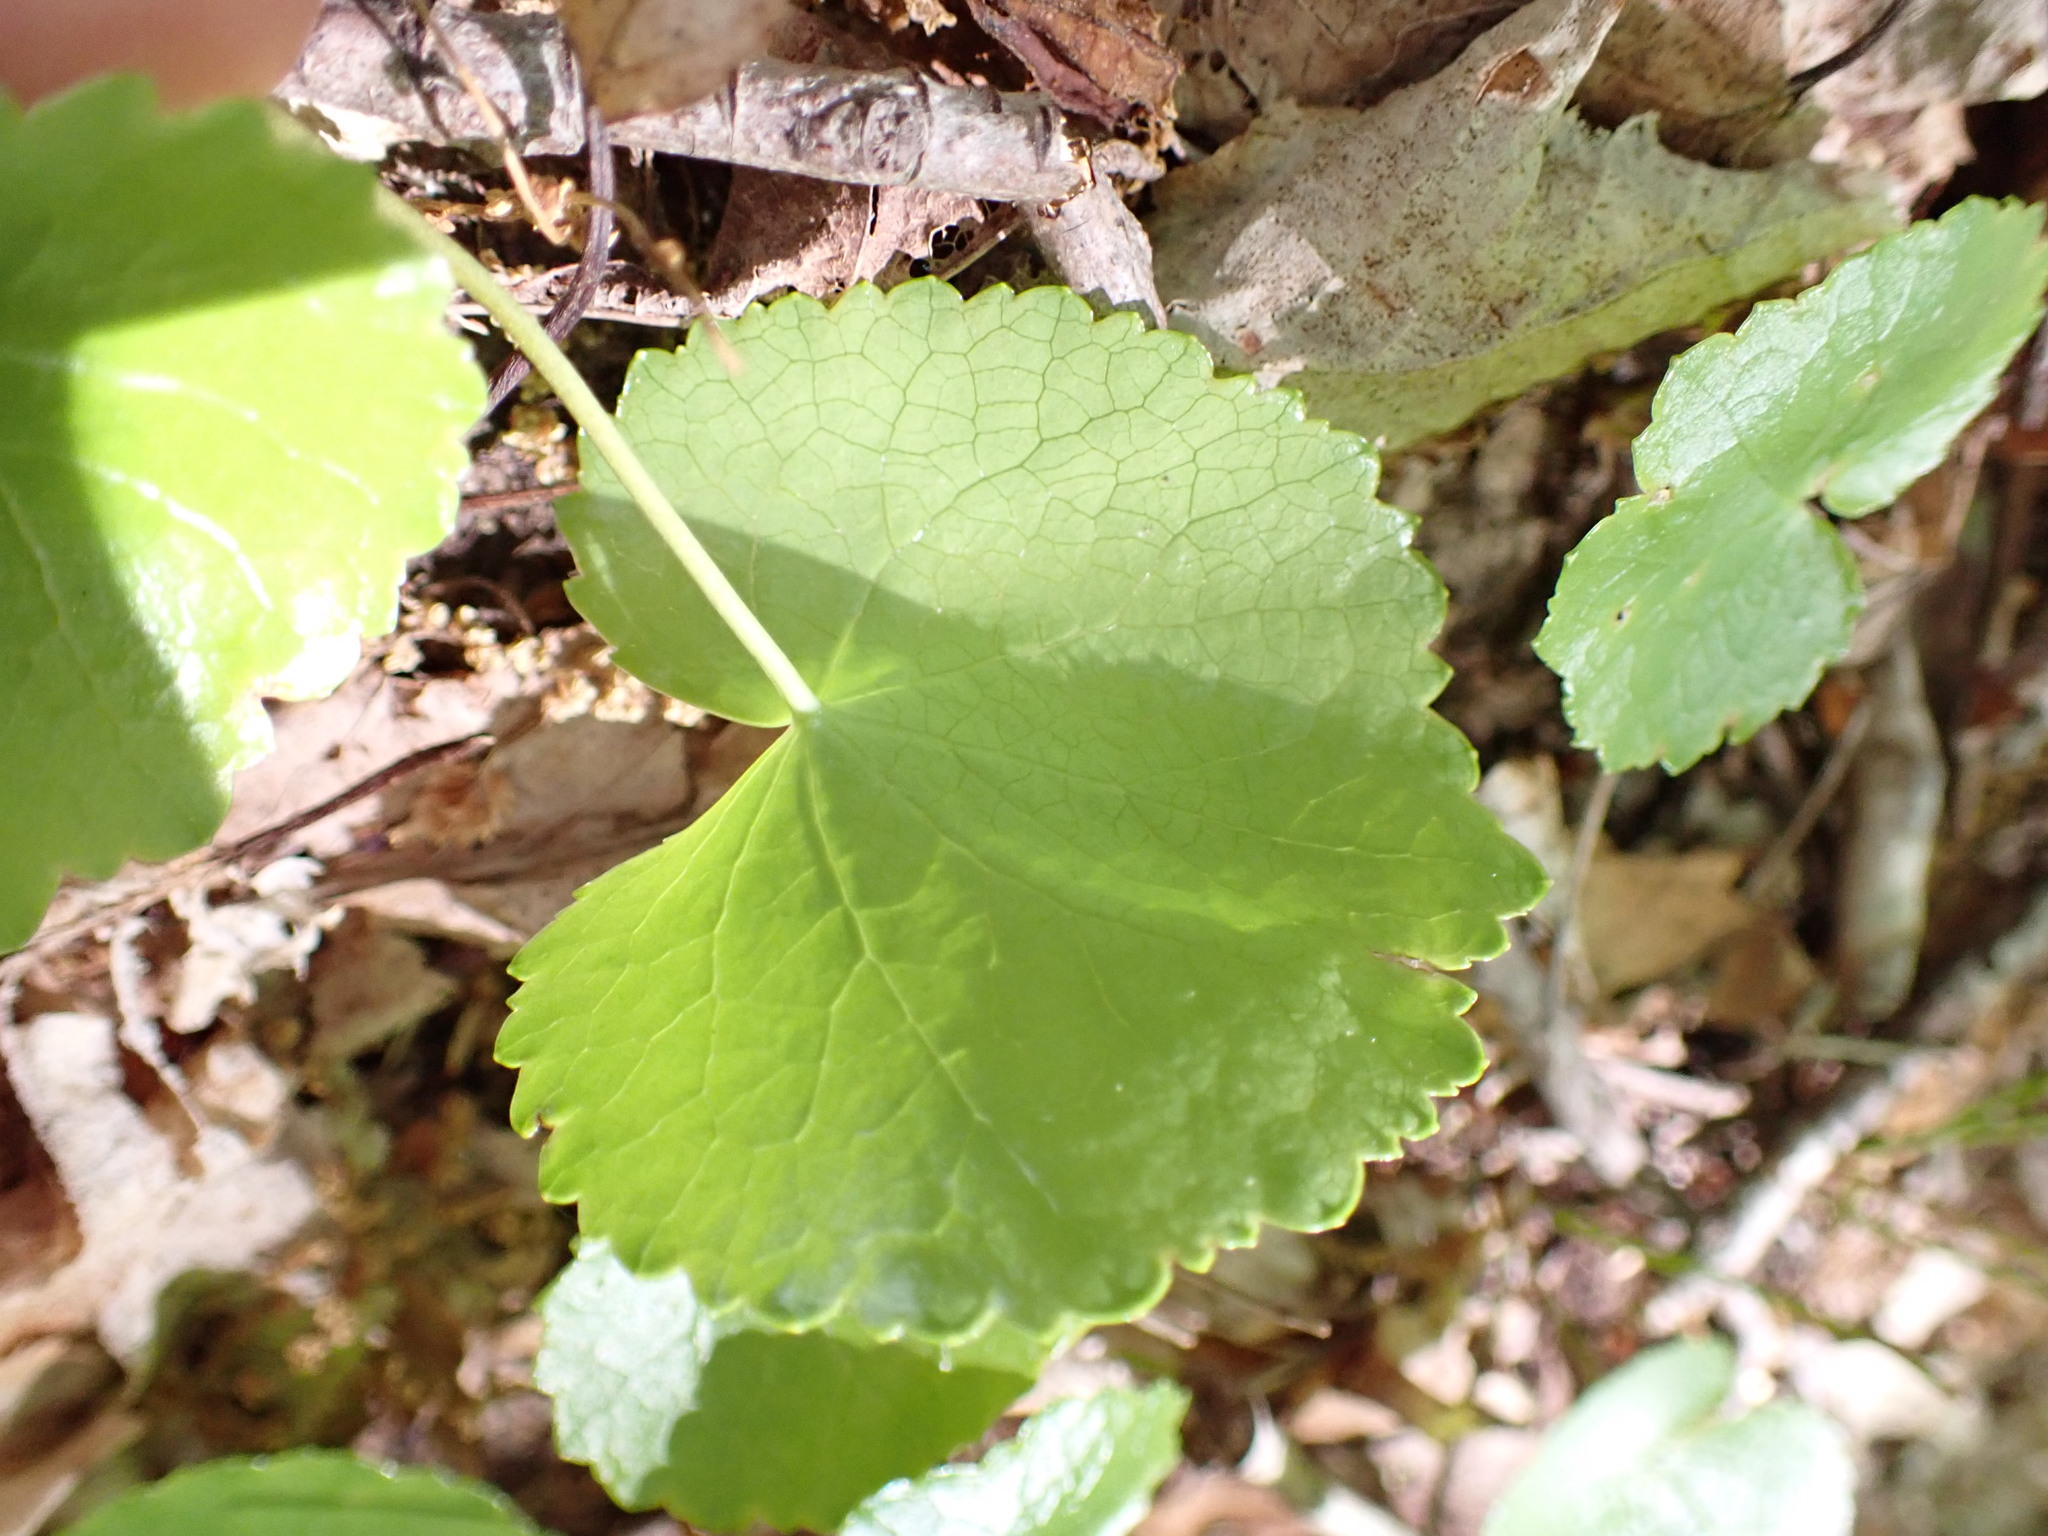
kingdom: Plantae
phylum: Tracheophyta
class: Magnoliopsida
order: Ericales
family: Diapensiaceae
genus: Galax
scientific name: Galax urceolata
